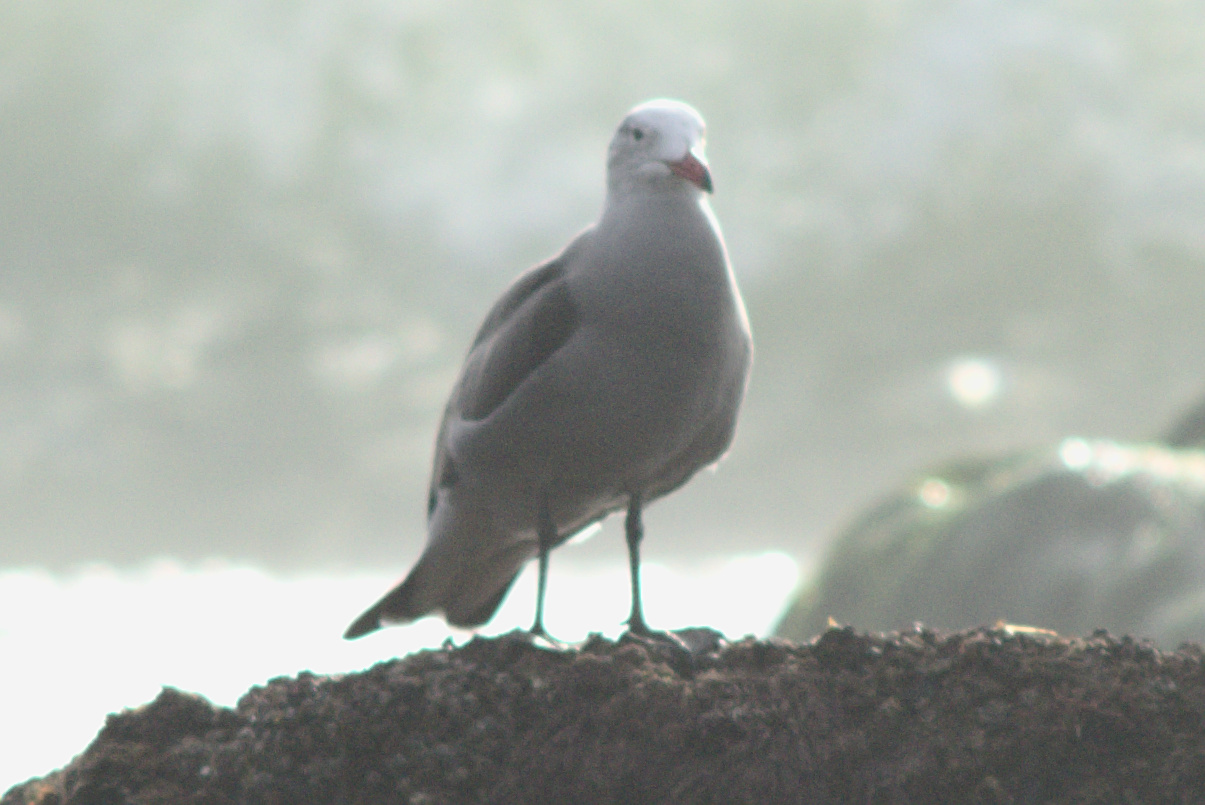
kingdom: Animalia
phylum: Chordata
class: Aves
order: Charadriiformes
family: Laridae
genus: Larus
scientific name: Larus heermanni
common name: Heermann's gull
